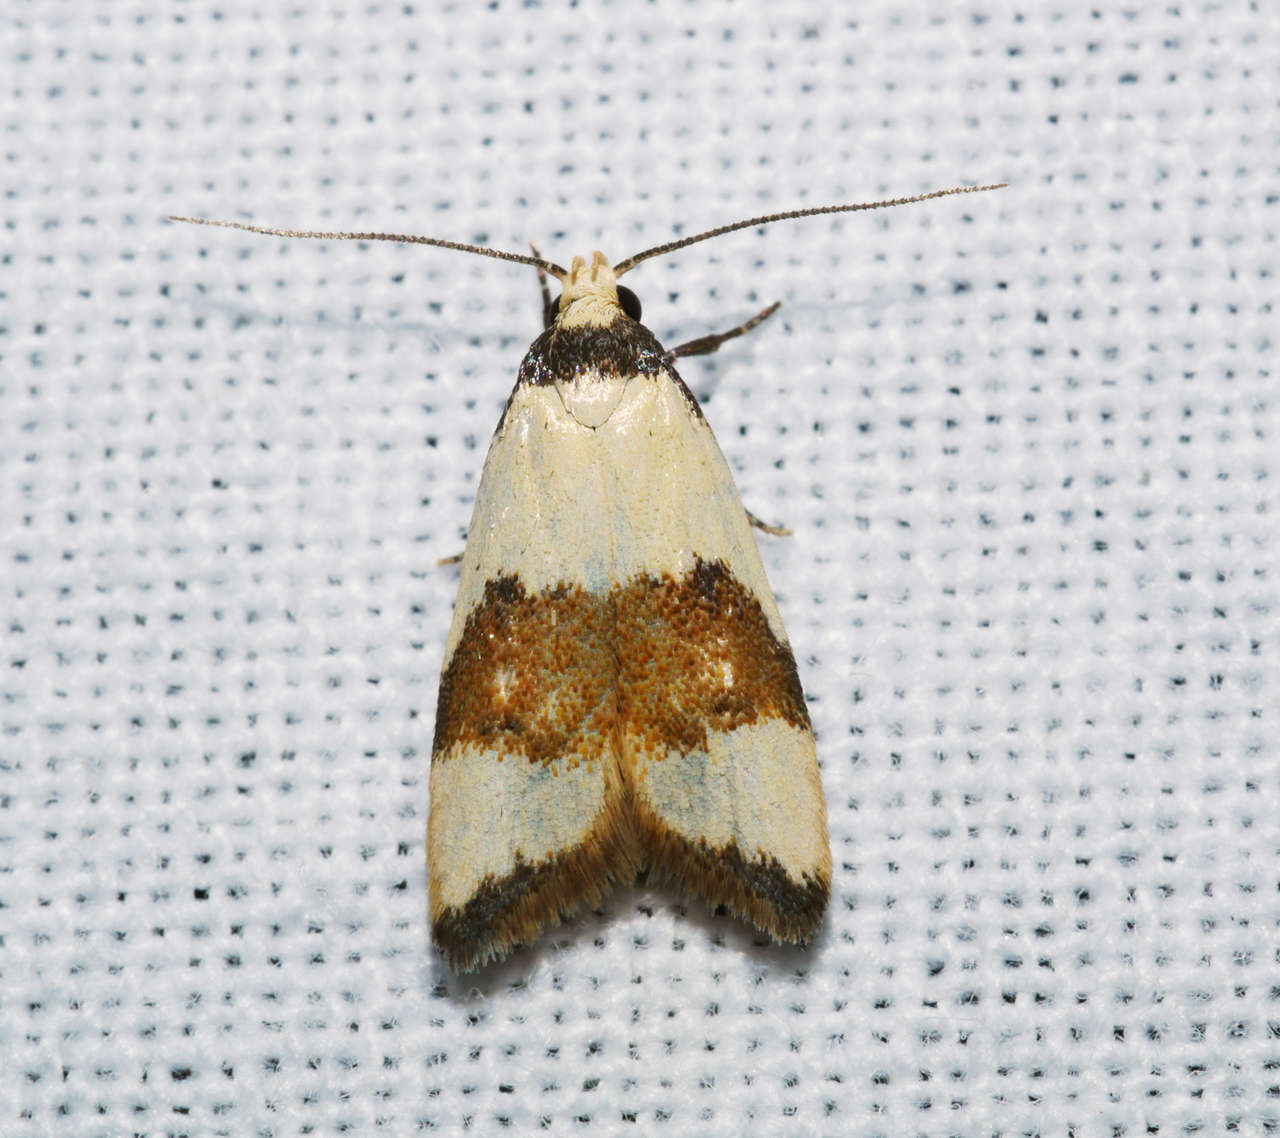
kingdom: Animalia
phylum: Arthropoda
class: Insecta
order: Lepidoptera
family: Oecophoridae
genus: Heteroteucha
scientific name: Heteroteucha ophthalmica
